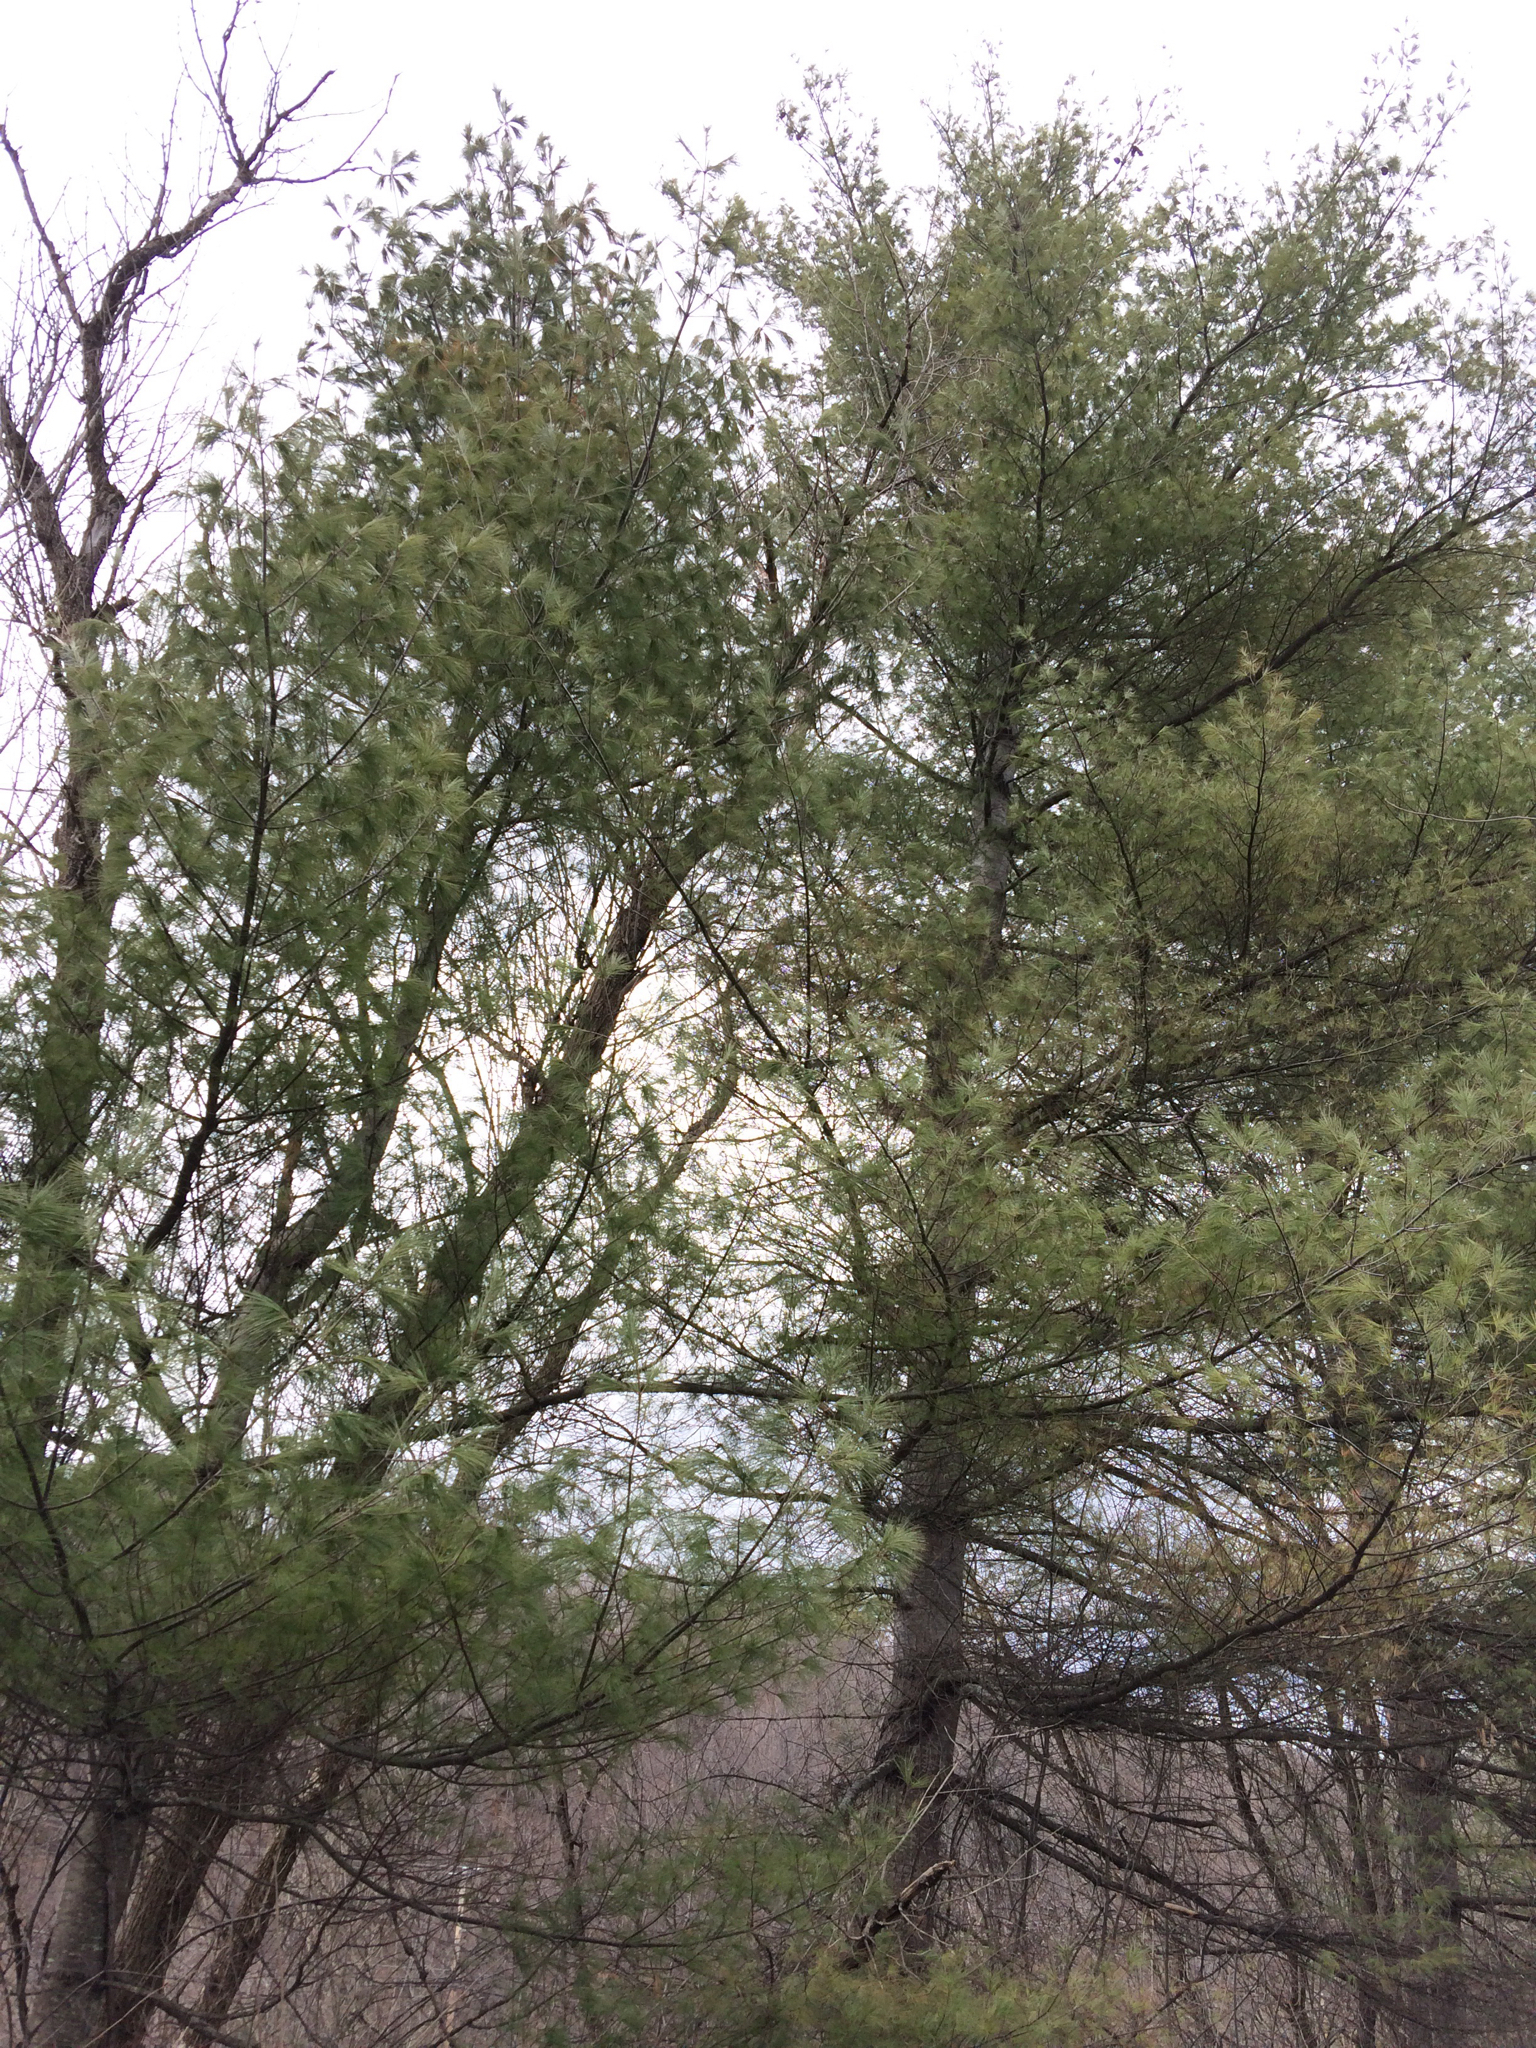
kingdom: Plantae
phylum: Tracheophyta
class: Pinopsida
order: Pinales
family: Pinaceae
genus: Pinus
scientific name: Pinus strobus
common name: Weymouth pine
